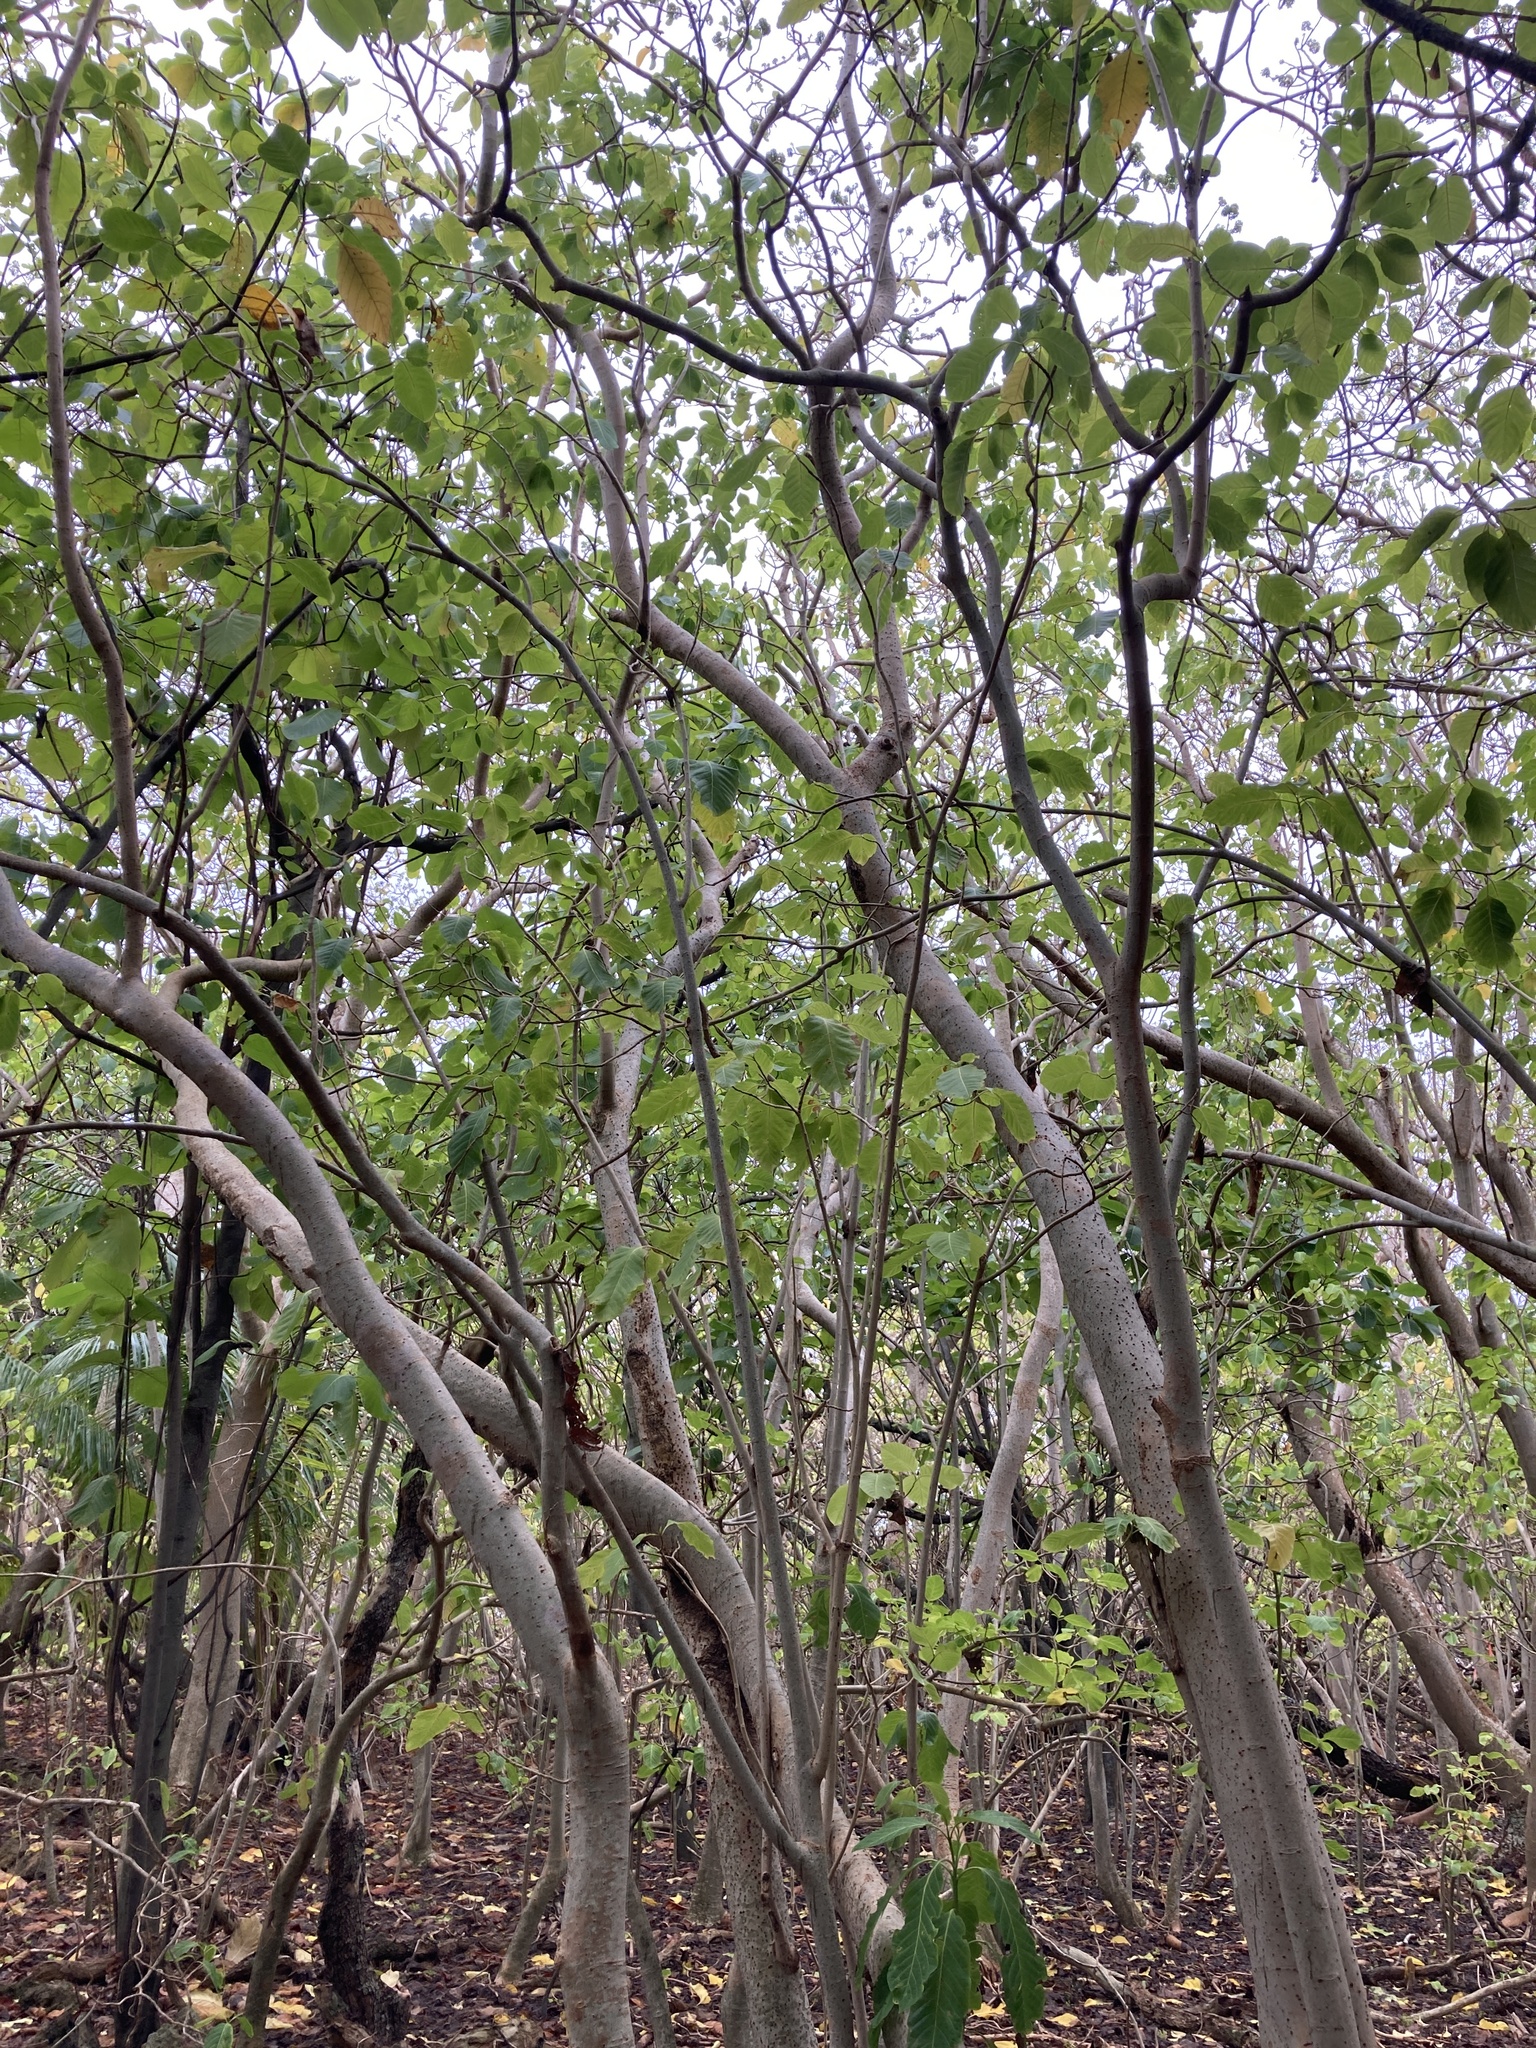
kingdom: Plantae
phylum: Tracheophyta
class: Magnoliopsida
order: Caryophyllales
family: Nyctaginaceae
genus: Ceodes
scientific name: Ceodes
